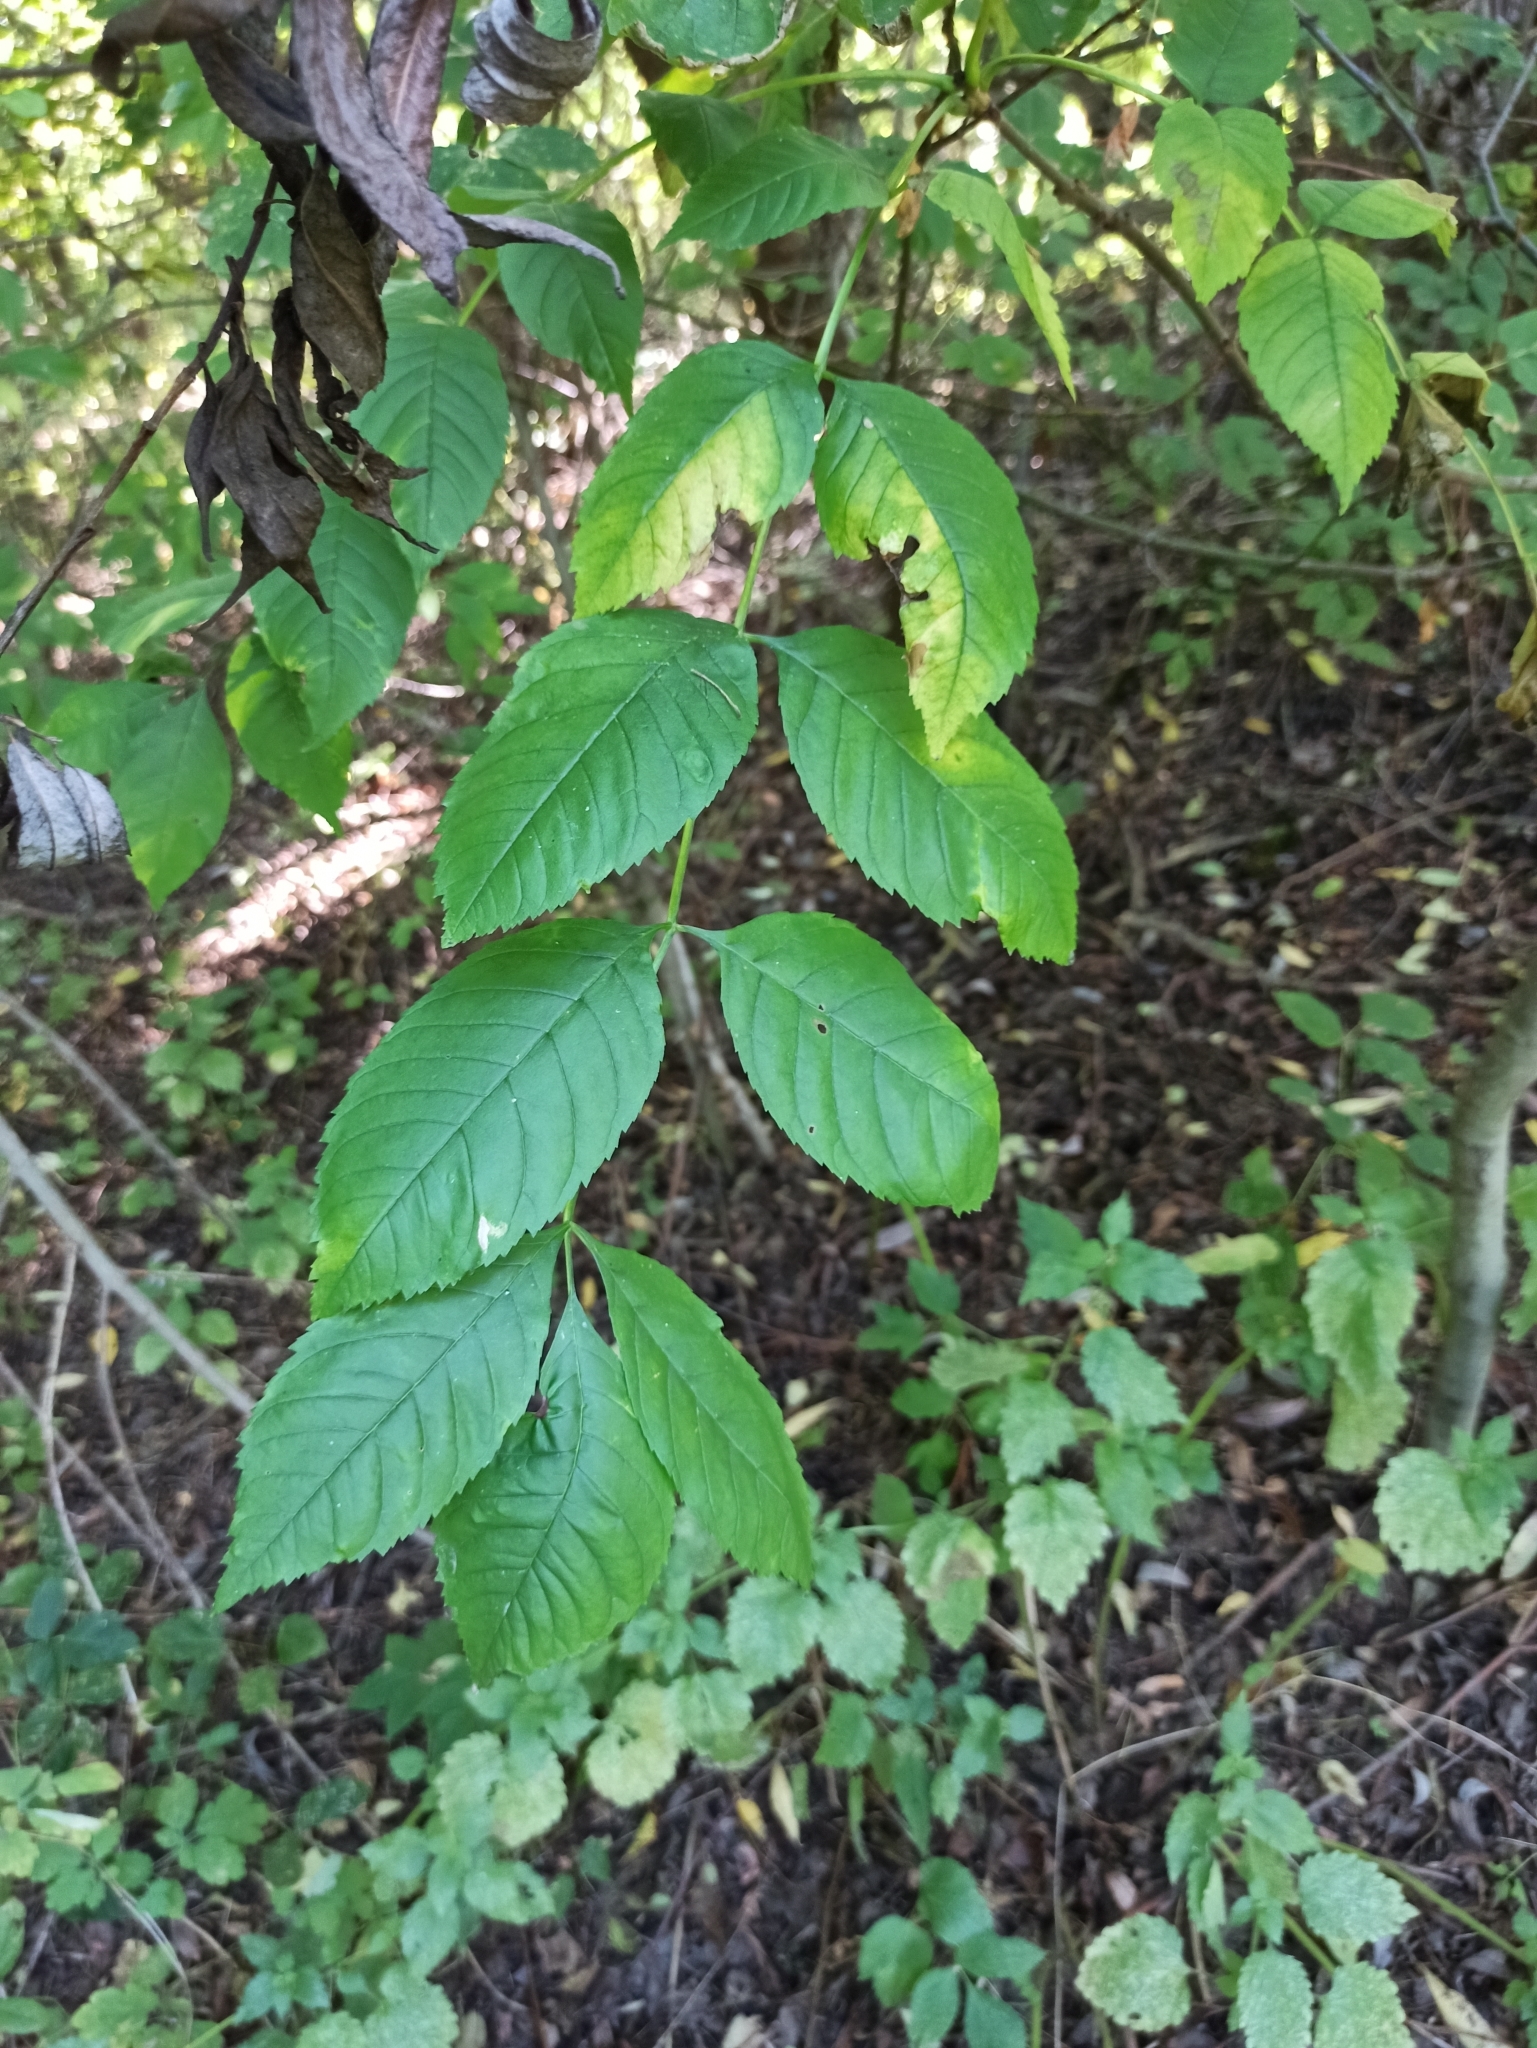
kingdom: Plantae
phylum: Tracheophyta
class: Magnoliopsida
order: Lamiales
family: Oleaceae
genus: Fraxinus
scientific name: Fraxinus excelsior
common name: European ash
